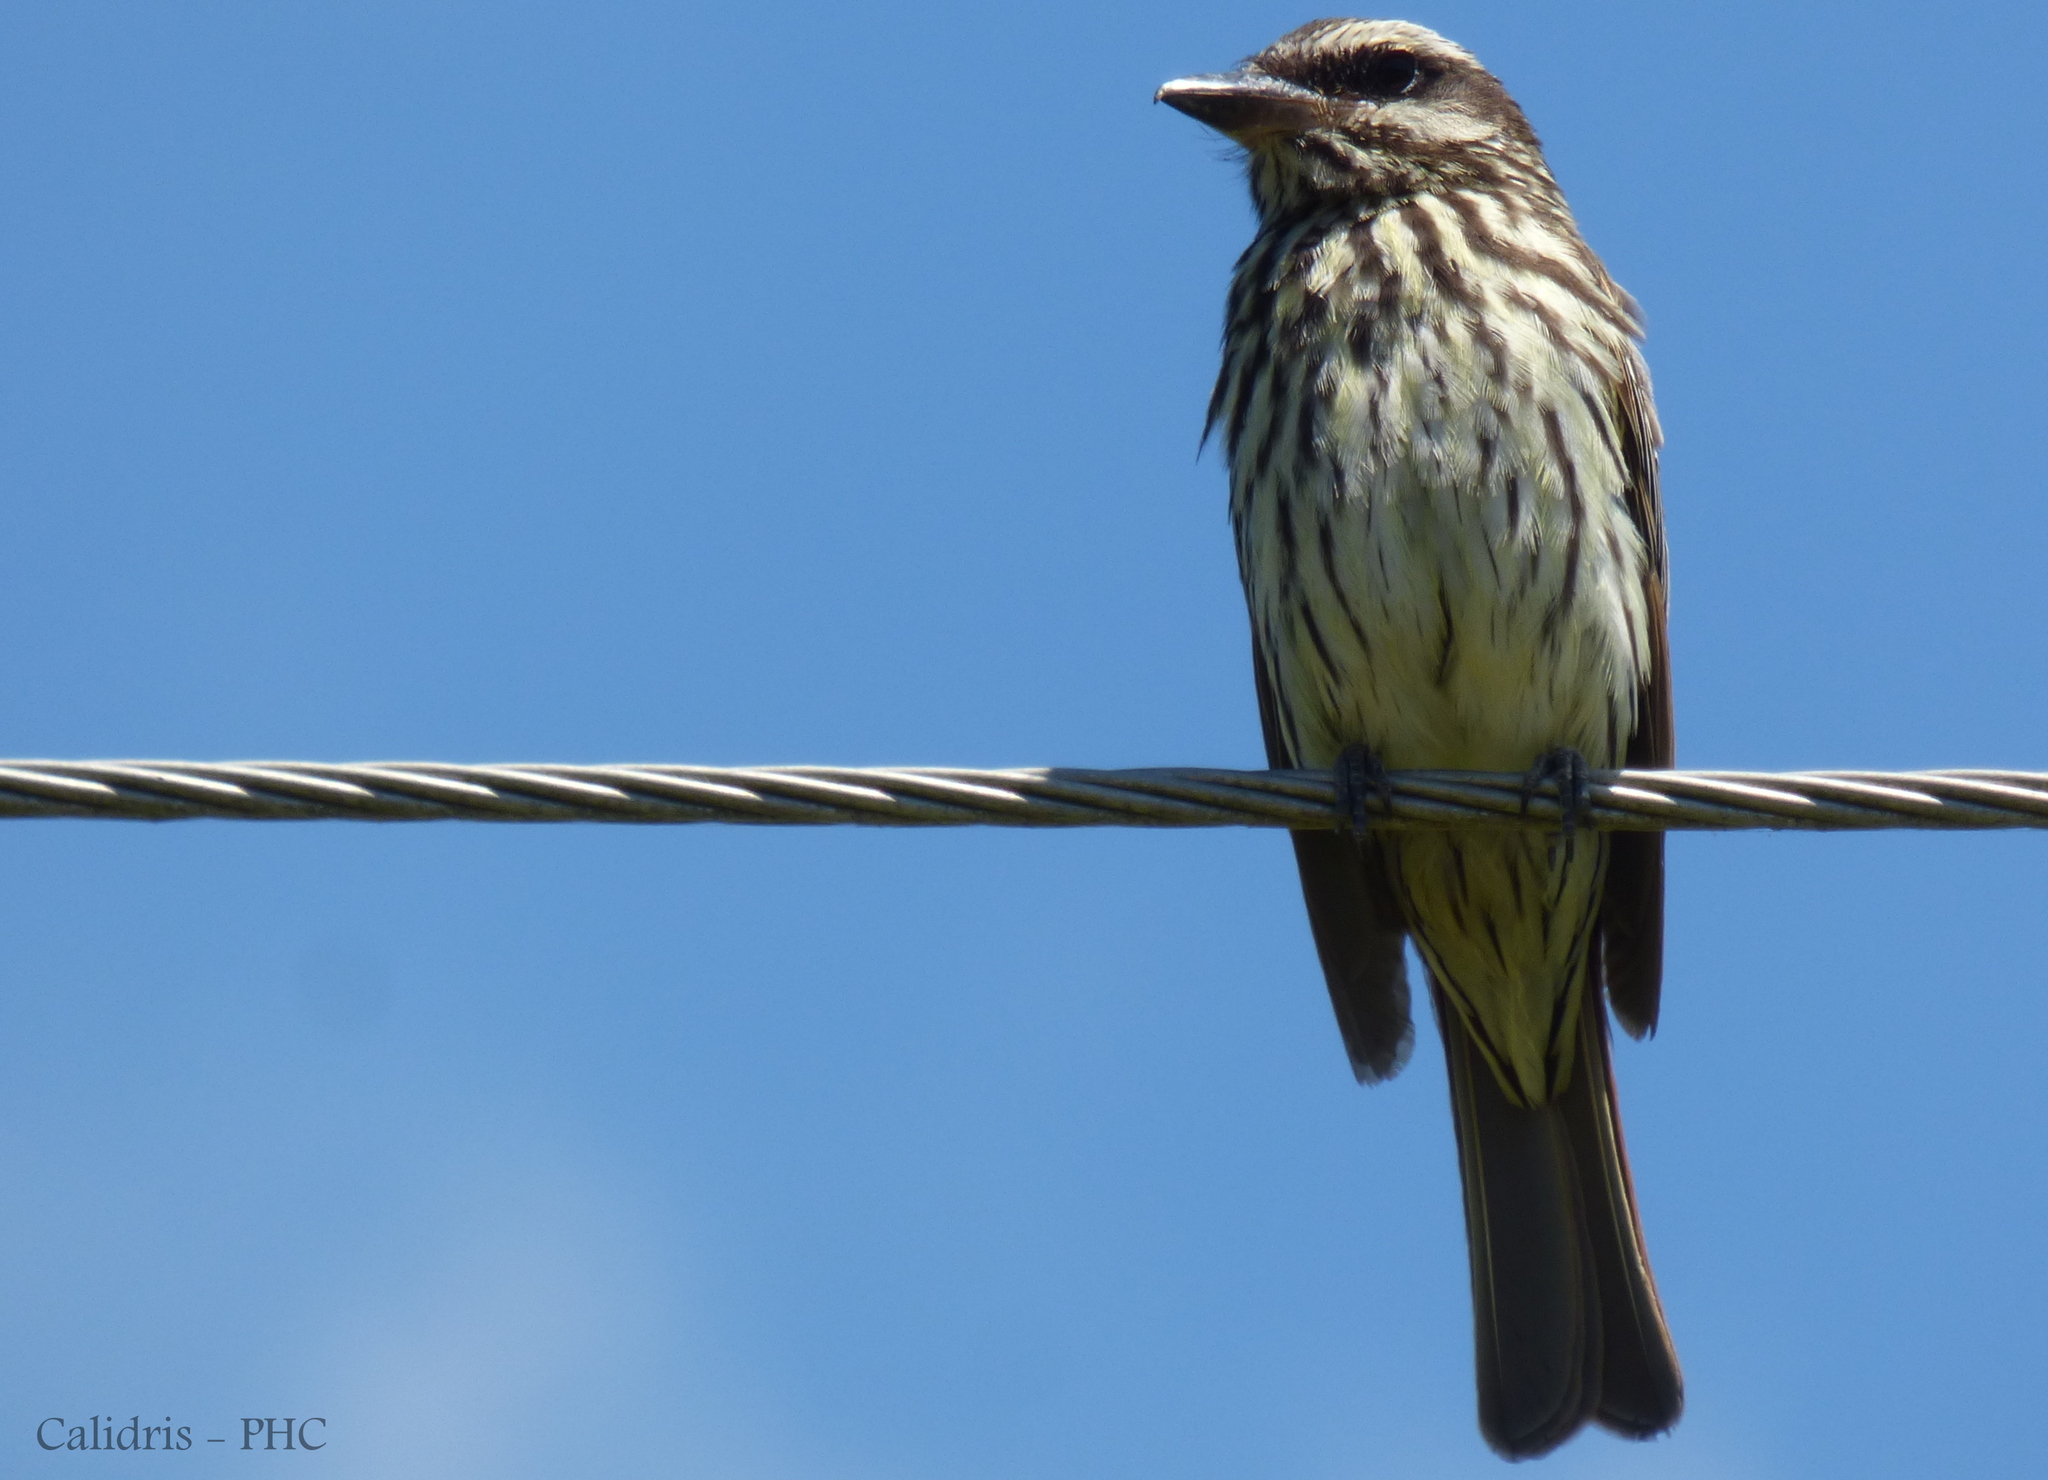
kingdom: Animalia
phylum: Chordata
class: Aves
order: Passeriformes
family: Tyrannidae
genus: Myiodynastes
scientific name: Myiodynastes maculatus
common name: Streaked flycatcher
